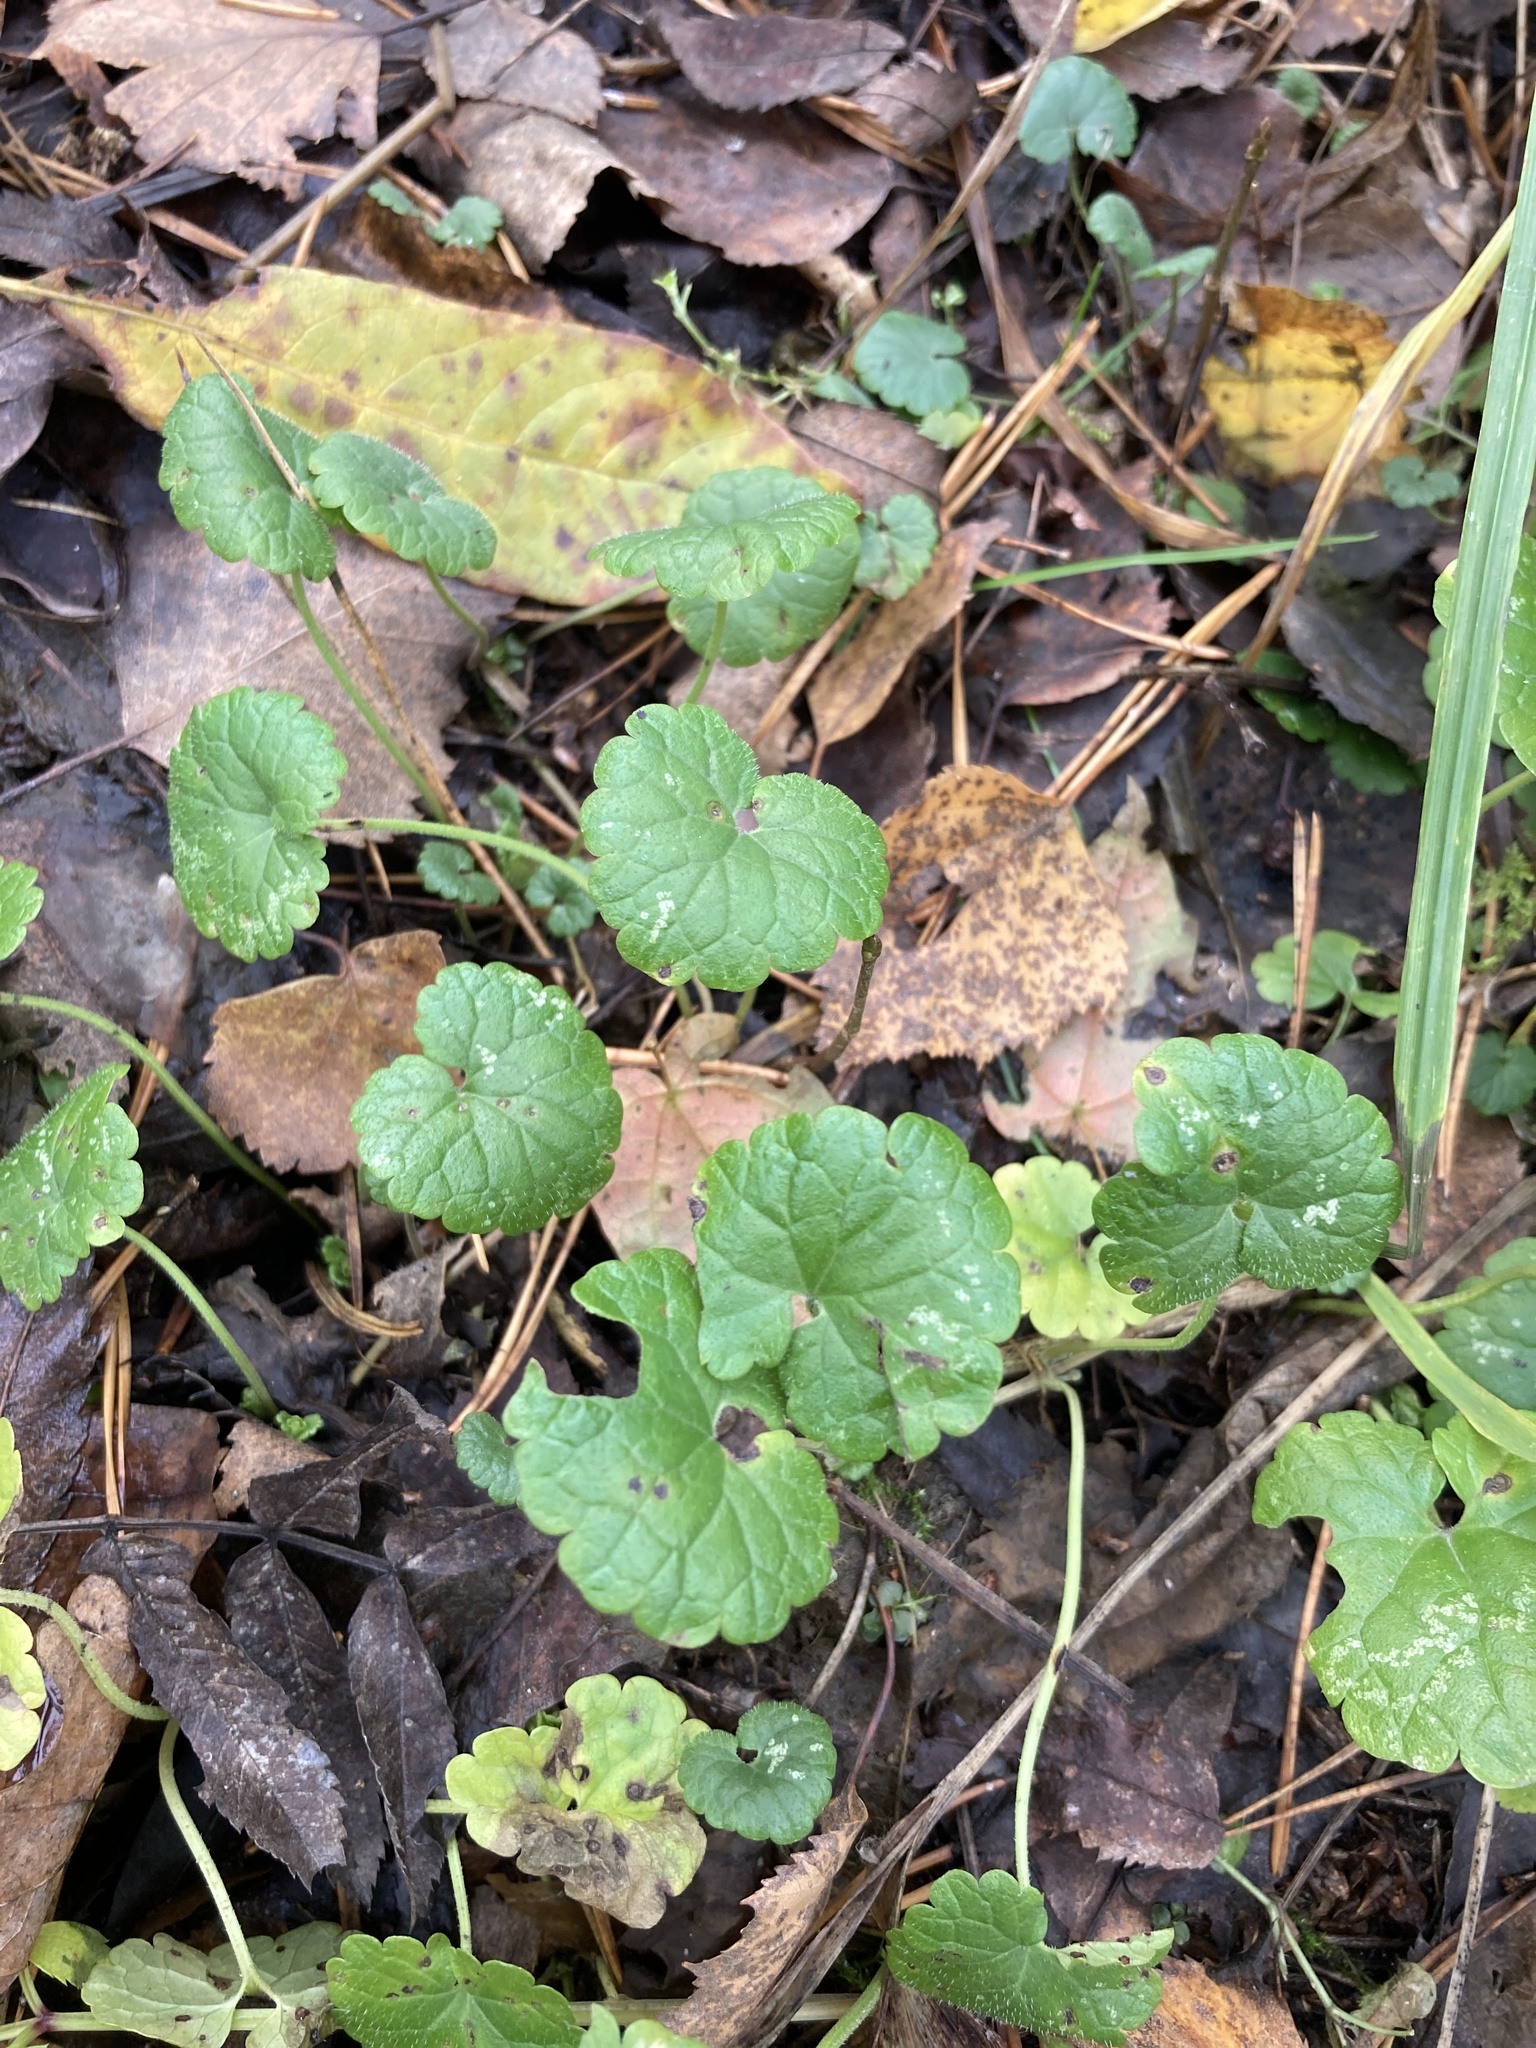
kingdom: Plantae
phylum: Tracheophyta
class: Magnoliopsida
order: Lamiales
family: Lamiaceae
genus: Glechoma
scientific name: Glechoma hederacea
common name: Ground ivy
